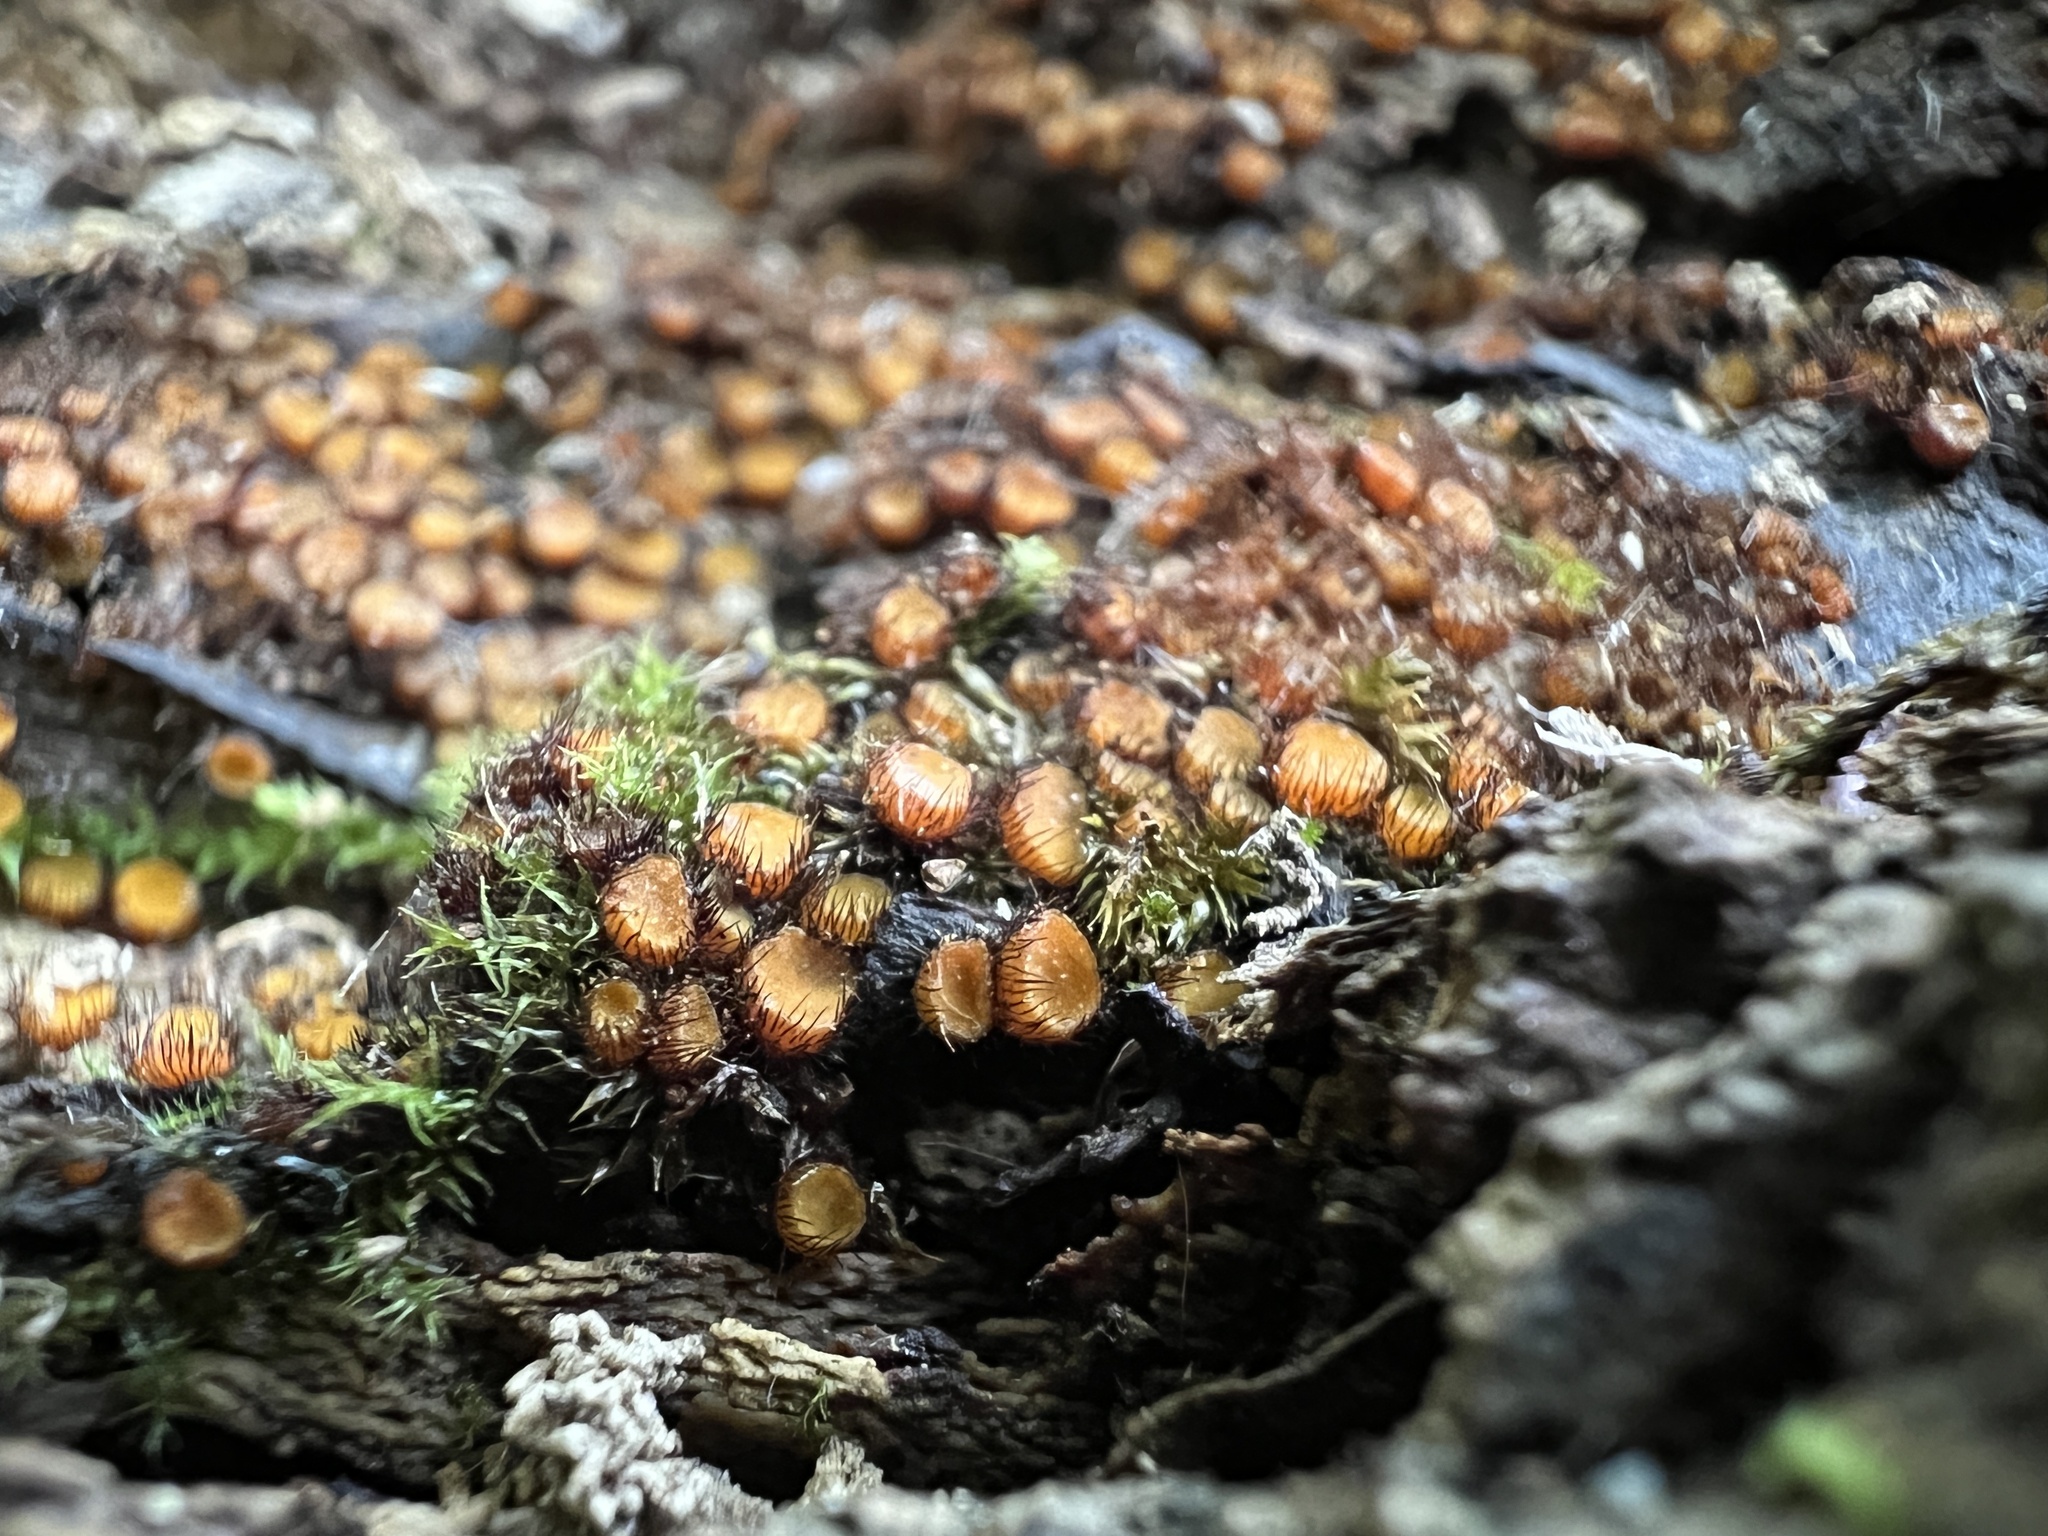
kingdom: Fungi
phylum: Ascomycota
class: Pezizomycetes
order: Pezizales
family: Pyronemataceae
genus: Scutellinia
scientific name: Scutellinia erinaceus
